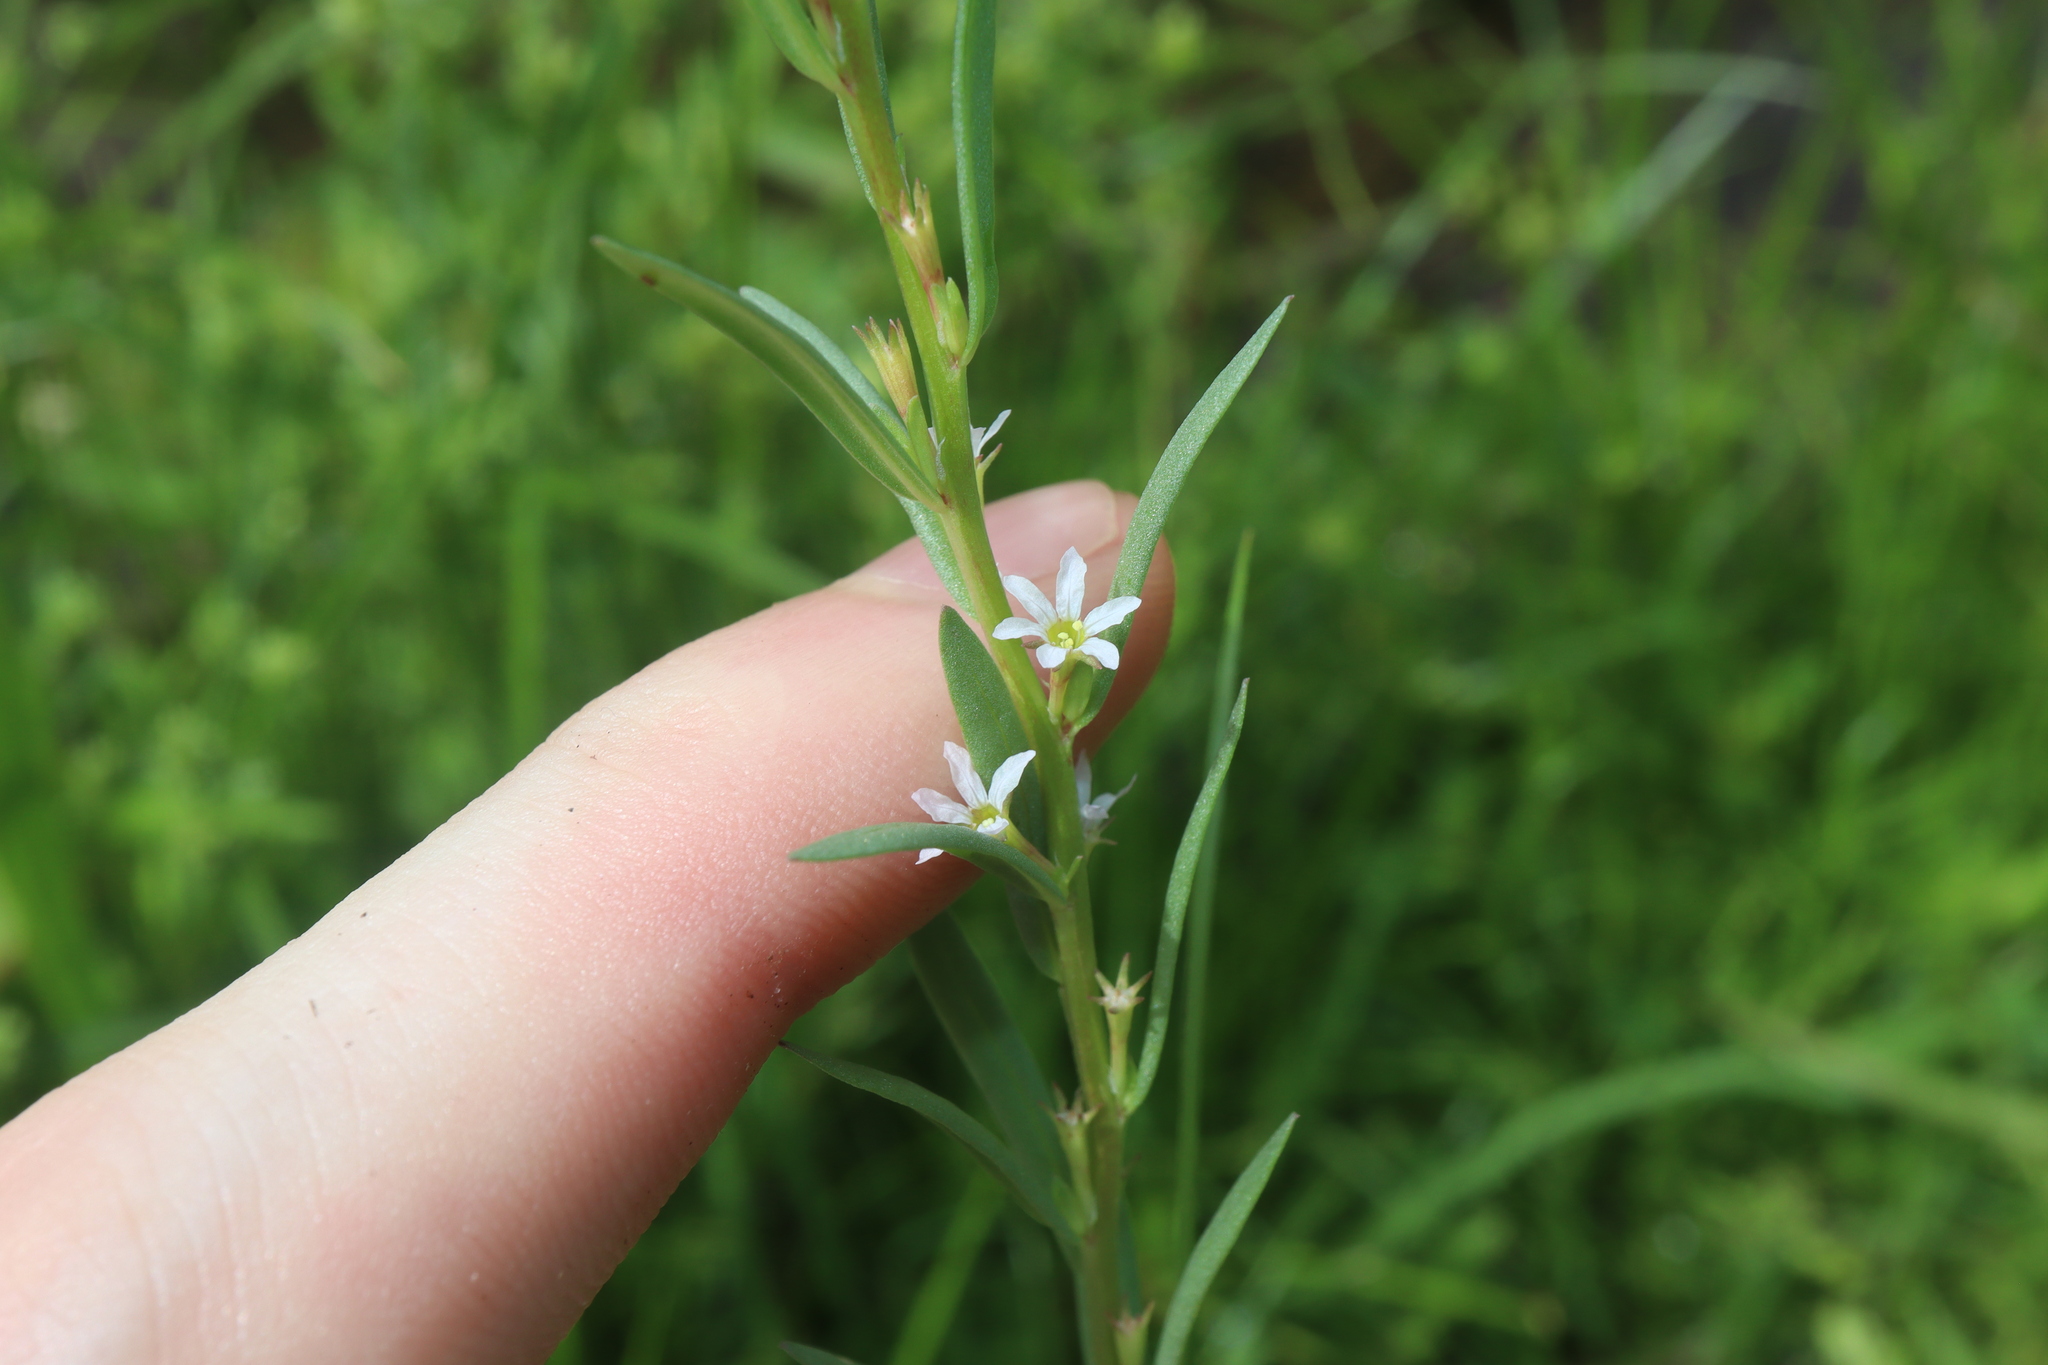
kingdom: Plantae
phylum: Tracheophyta
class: Magnoliopsida
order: Myrtales
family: Lythraceae
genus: Lythrum
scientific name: Lythrum hyssopifolia
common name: Grass-poly
